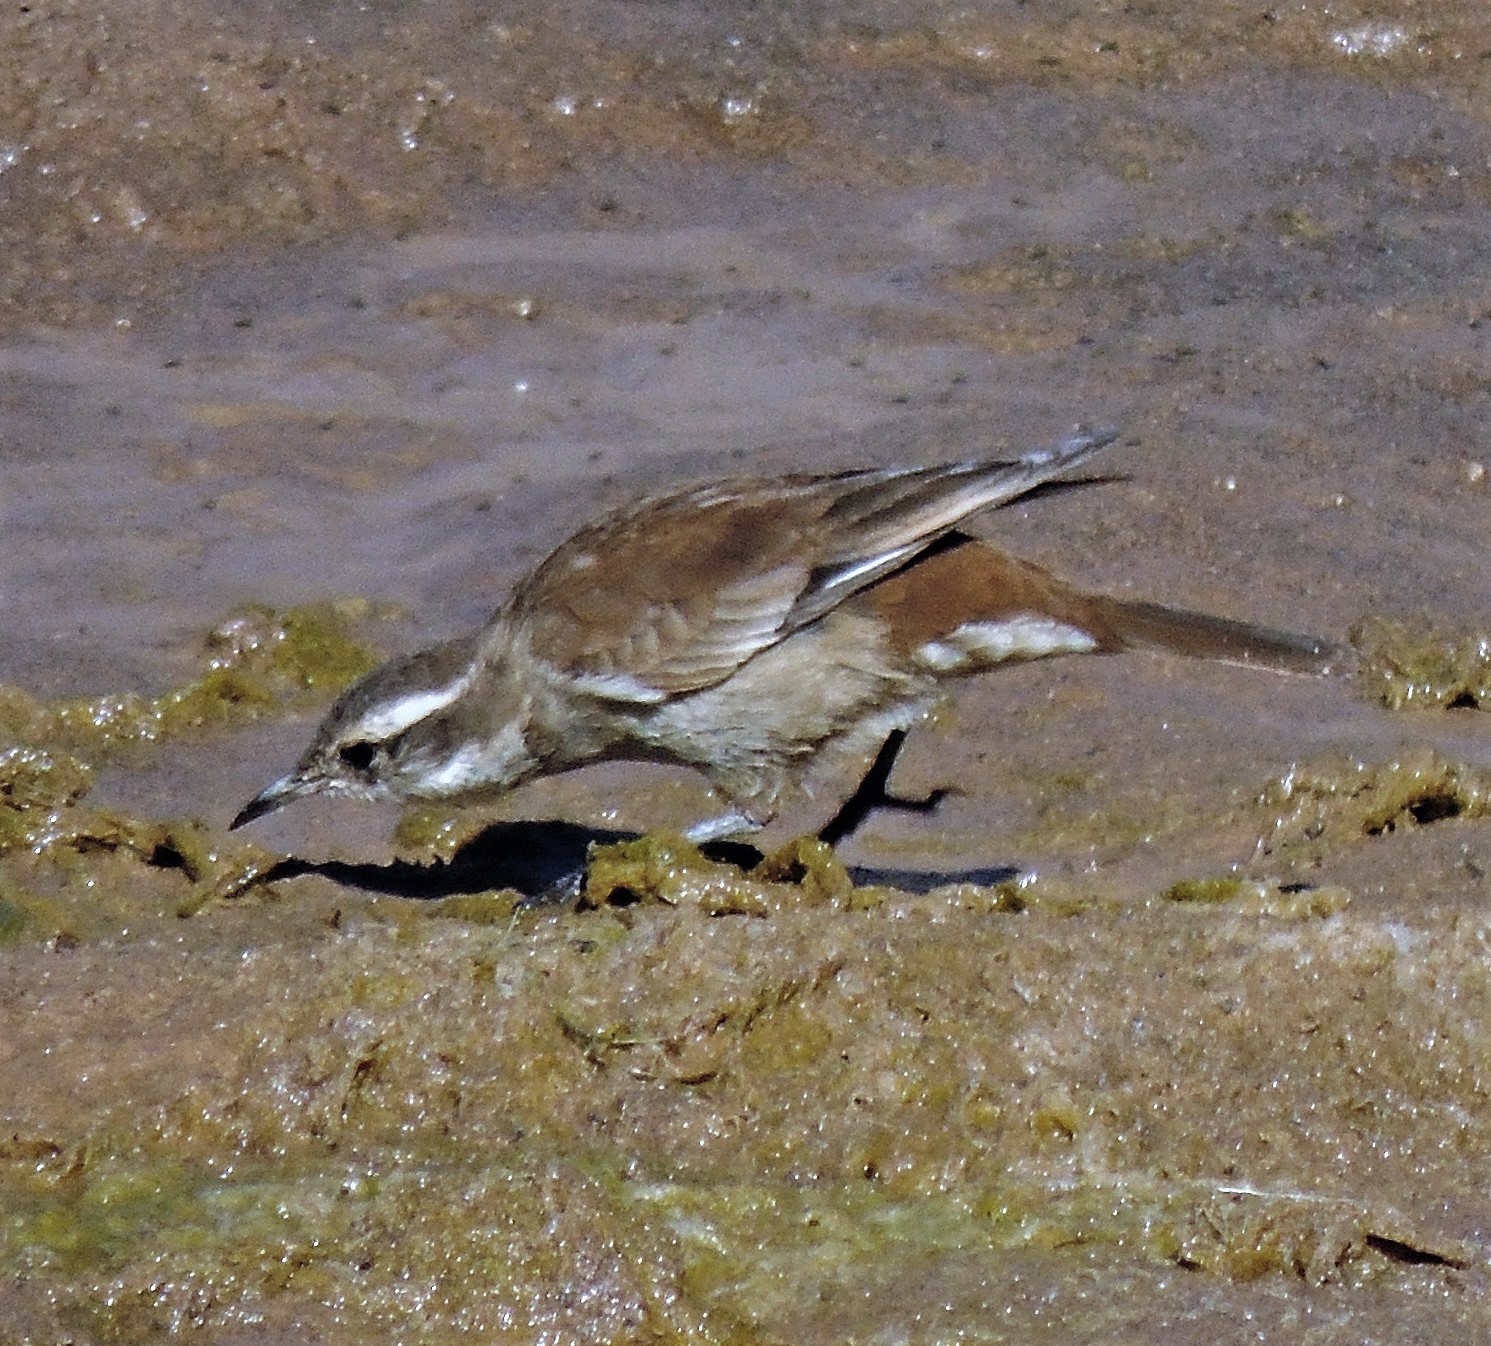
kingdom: Animalia
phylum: Chordata
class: Aves
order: Passeriformes
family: Furnariidae
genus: Cinclodes
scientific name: Cinclodes fuscus
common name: Buff-winged cinclodes
